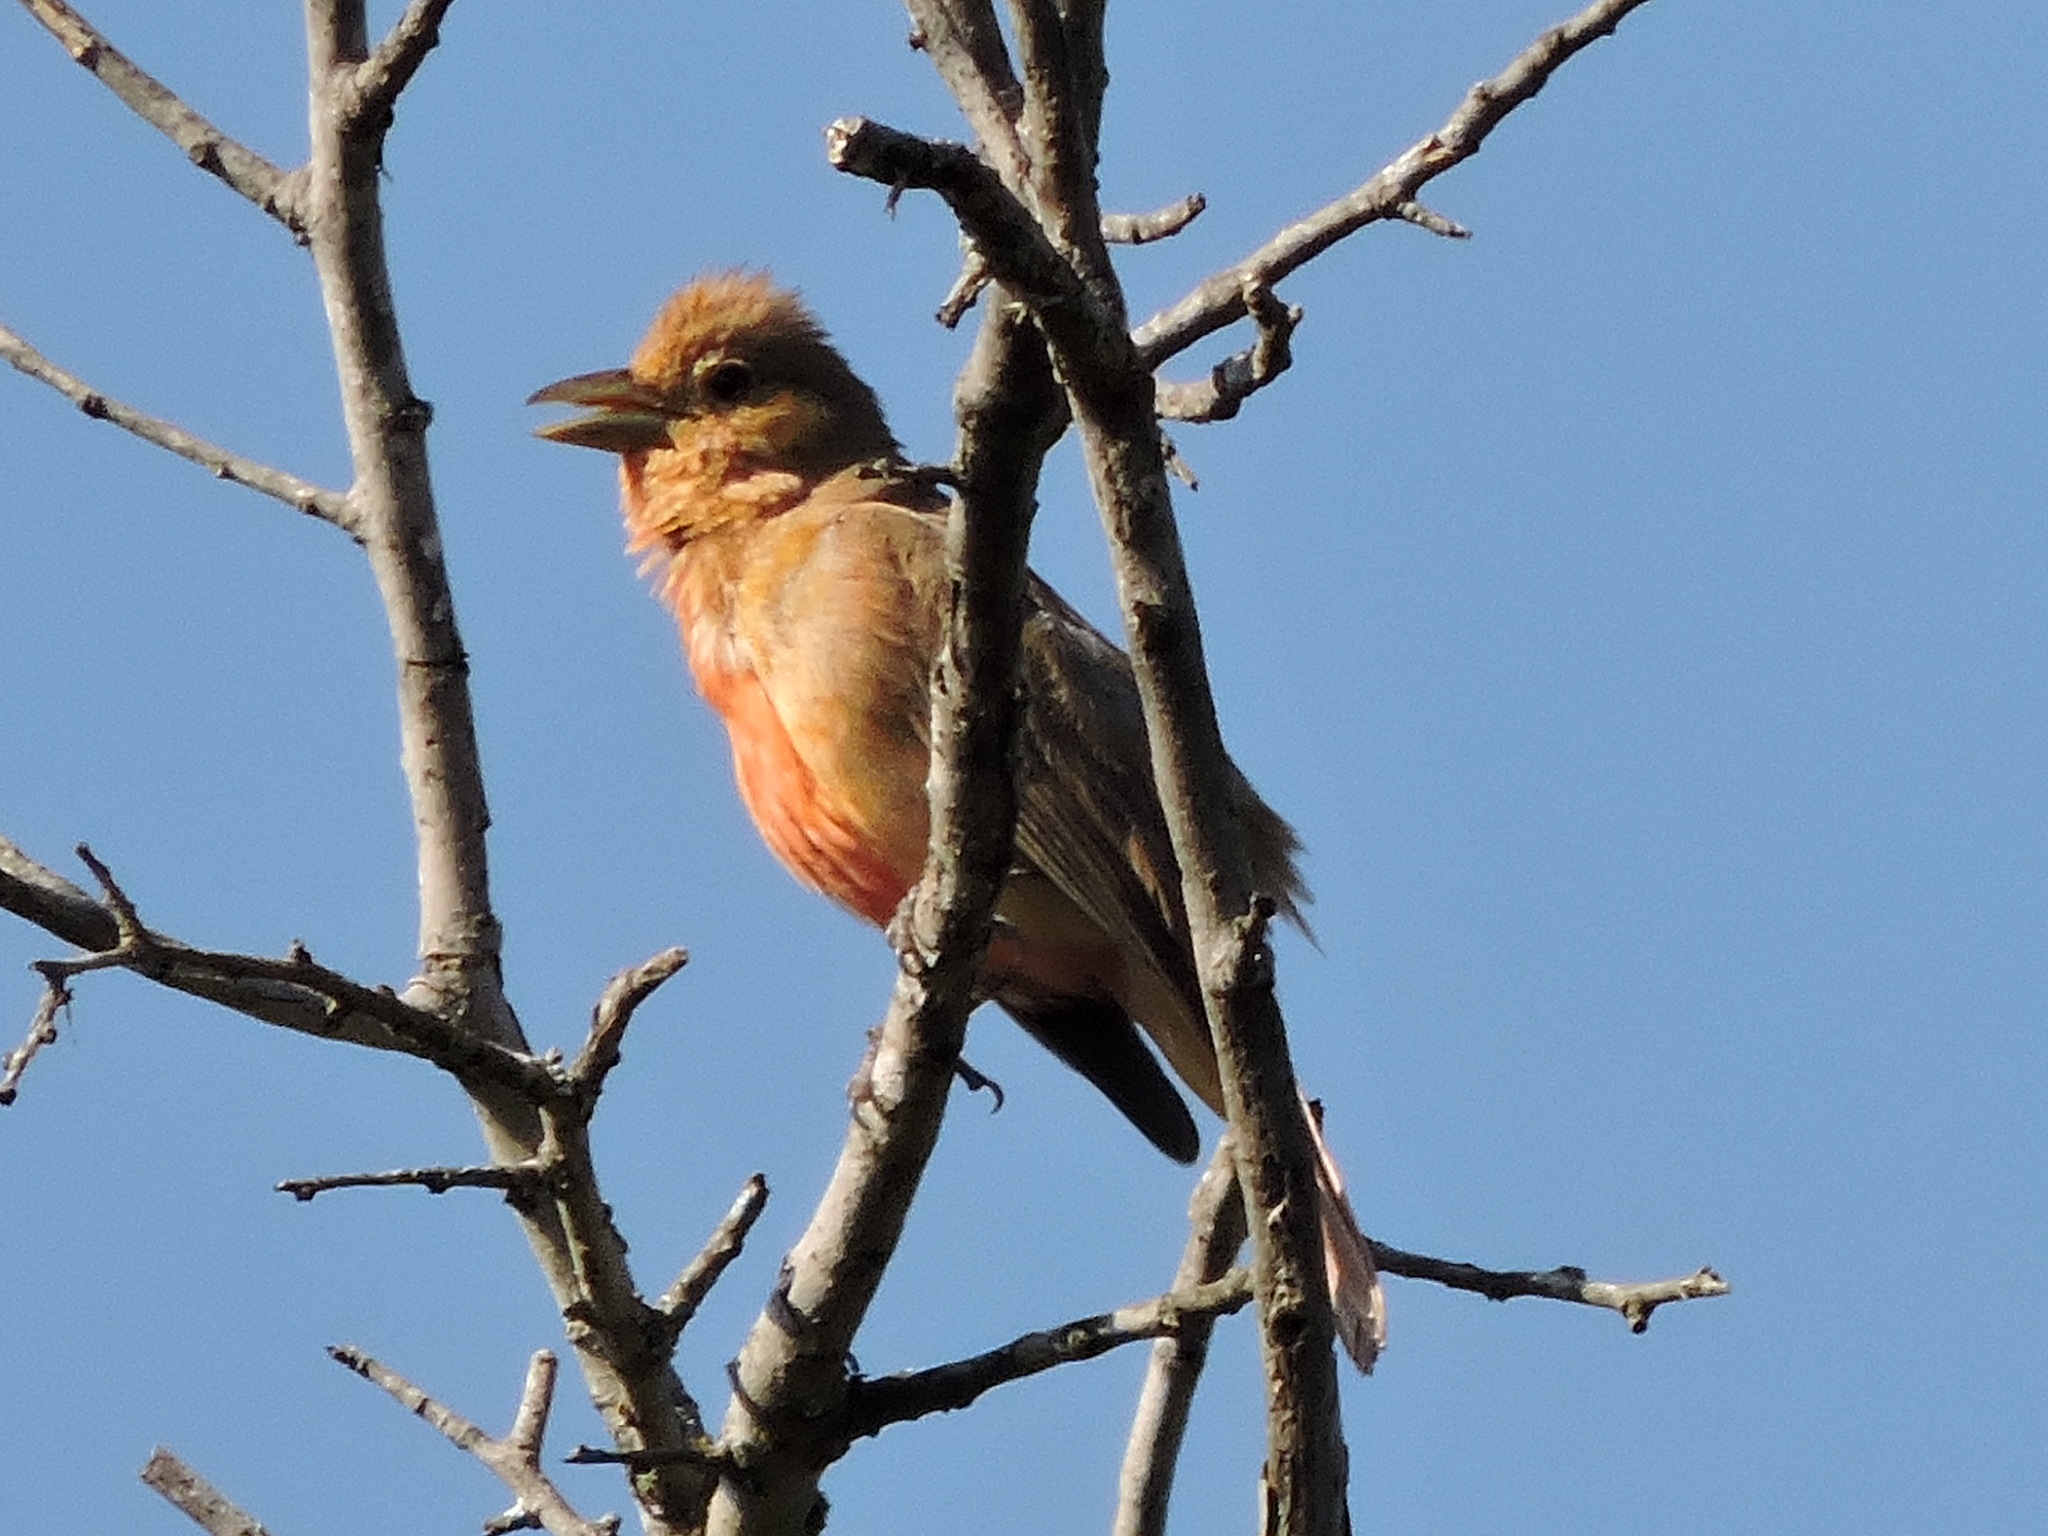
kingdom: Animalia
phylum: Chordata
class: Aves
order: Passeriformes
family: Cardinalidae
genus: Piranga
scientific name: Piranga rubra
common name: Summer tanager
